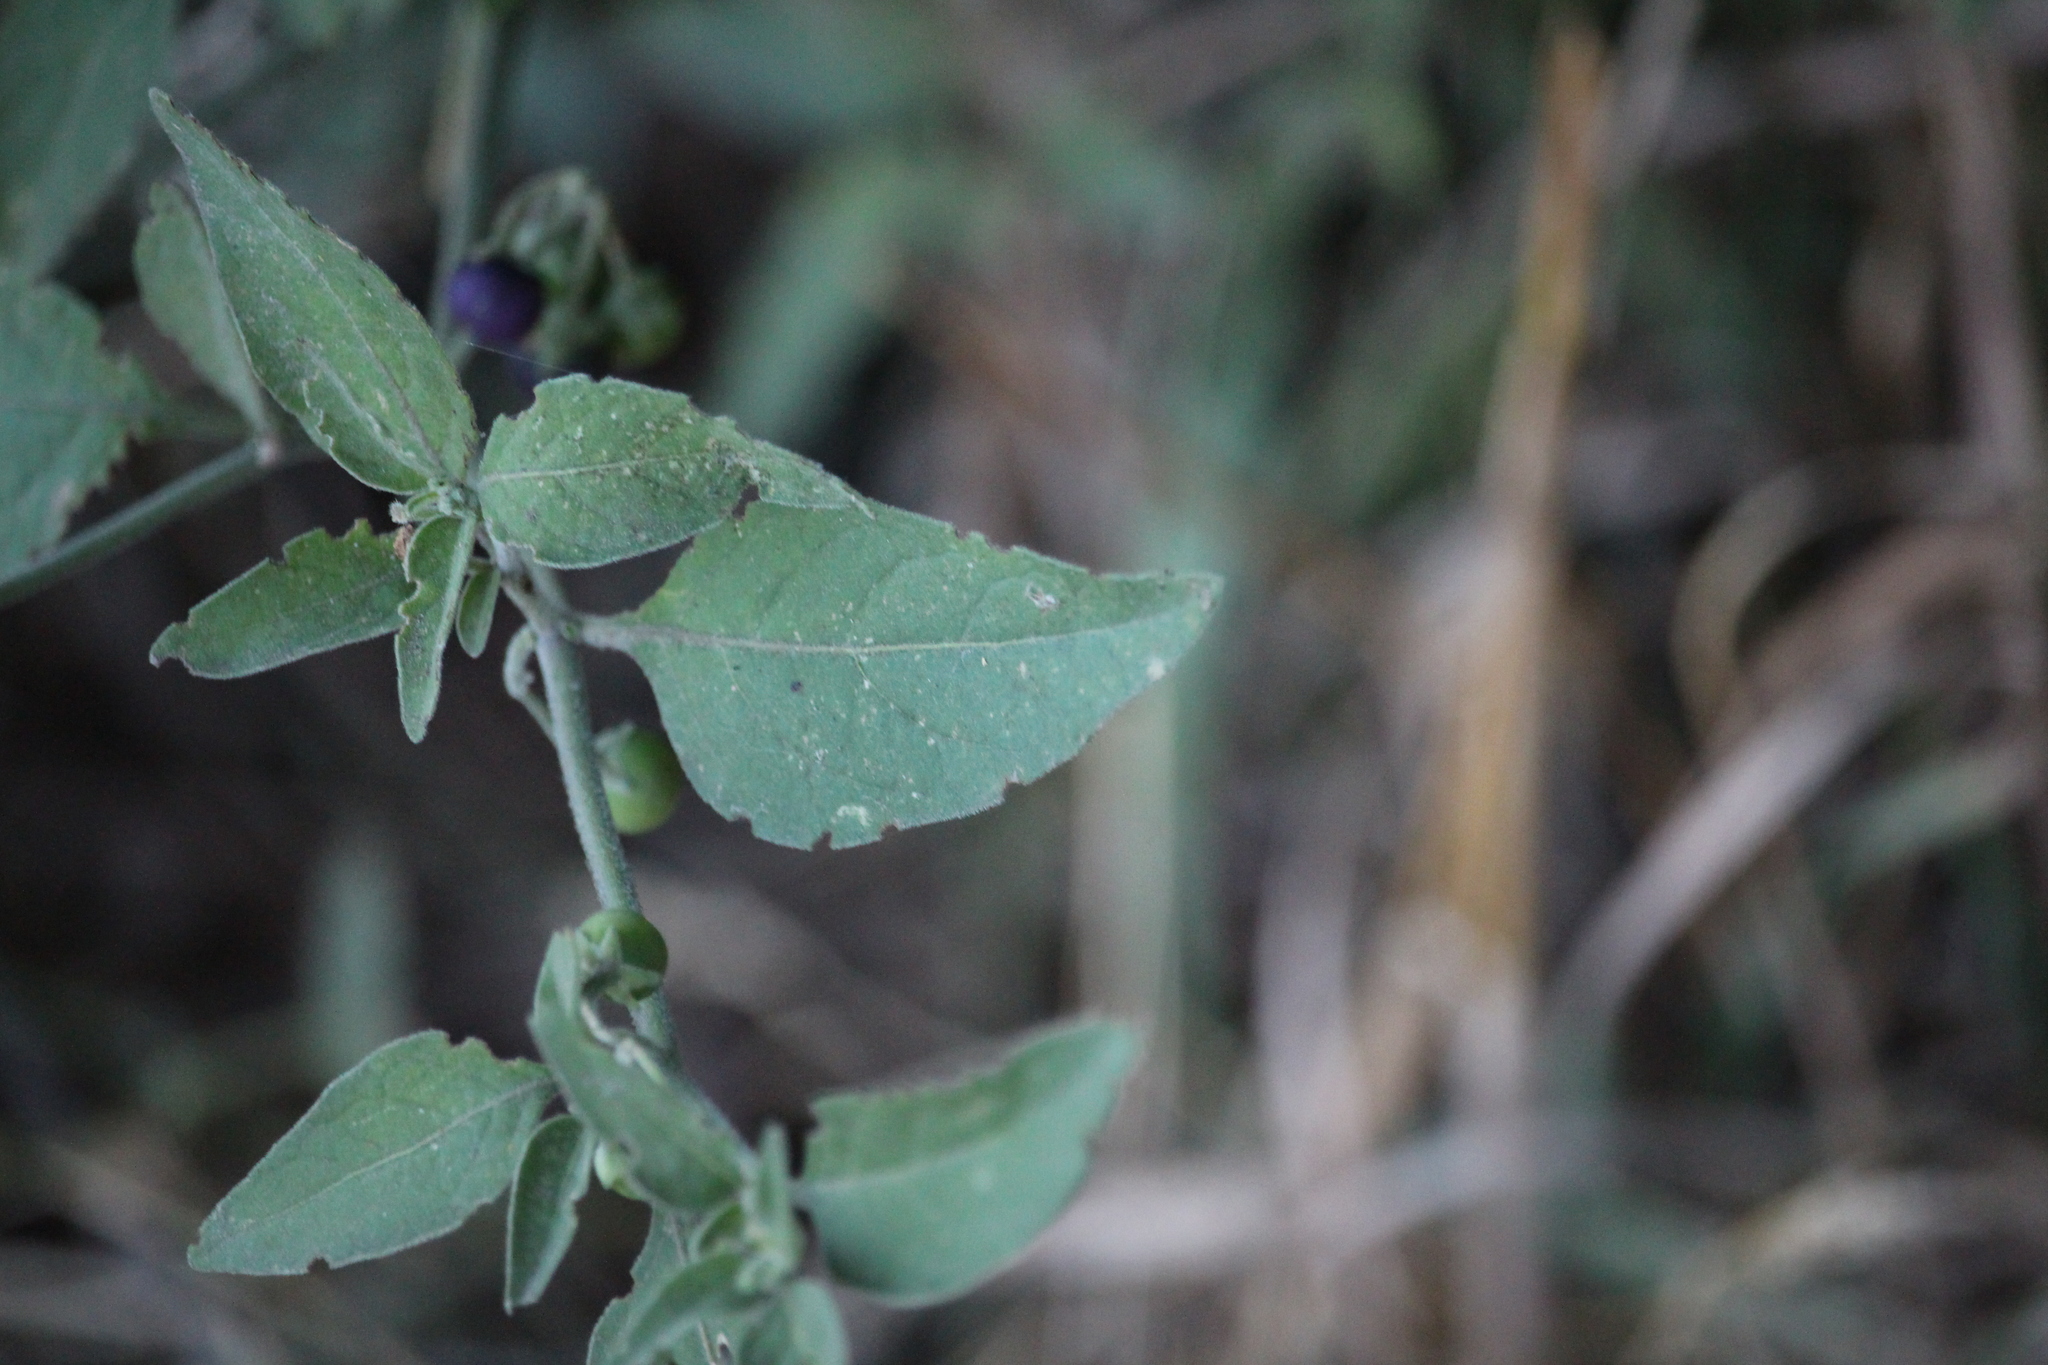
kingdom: Plantae
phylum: Tracheophyta
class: Magnoliopsida
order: Solanales
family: Solanaceae
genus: Solanum
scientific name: Solanum chenopodioides
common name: Tall nightshade
